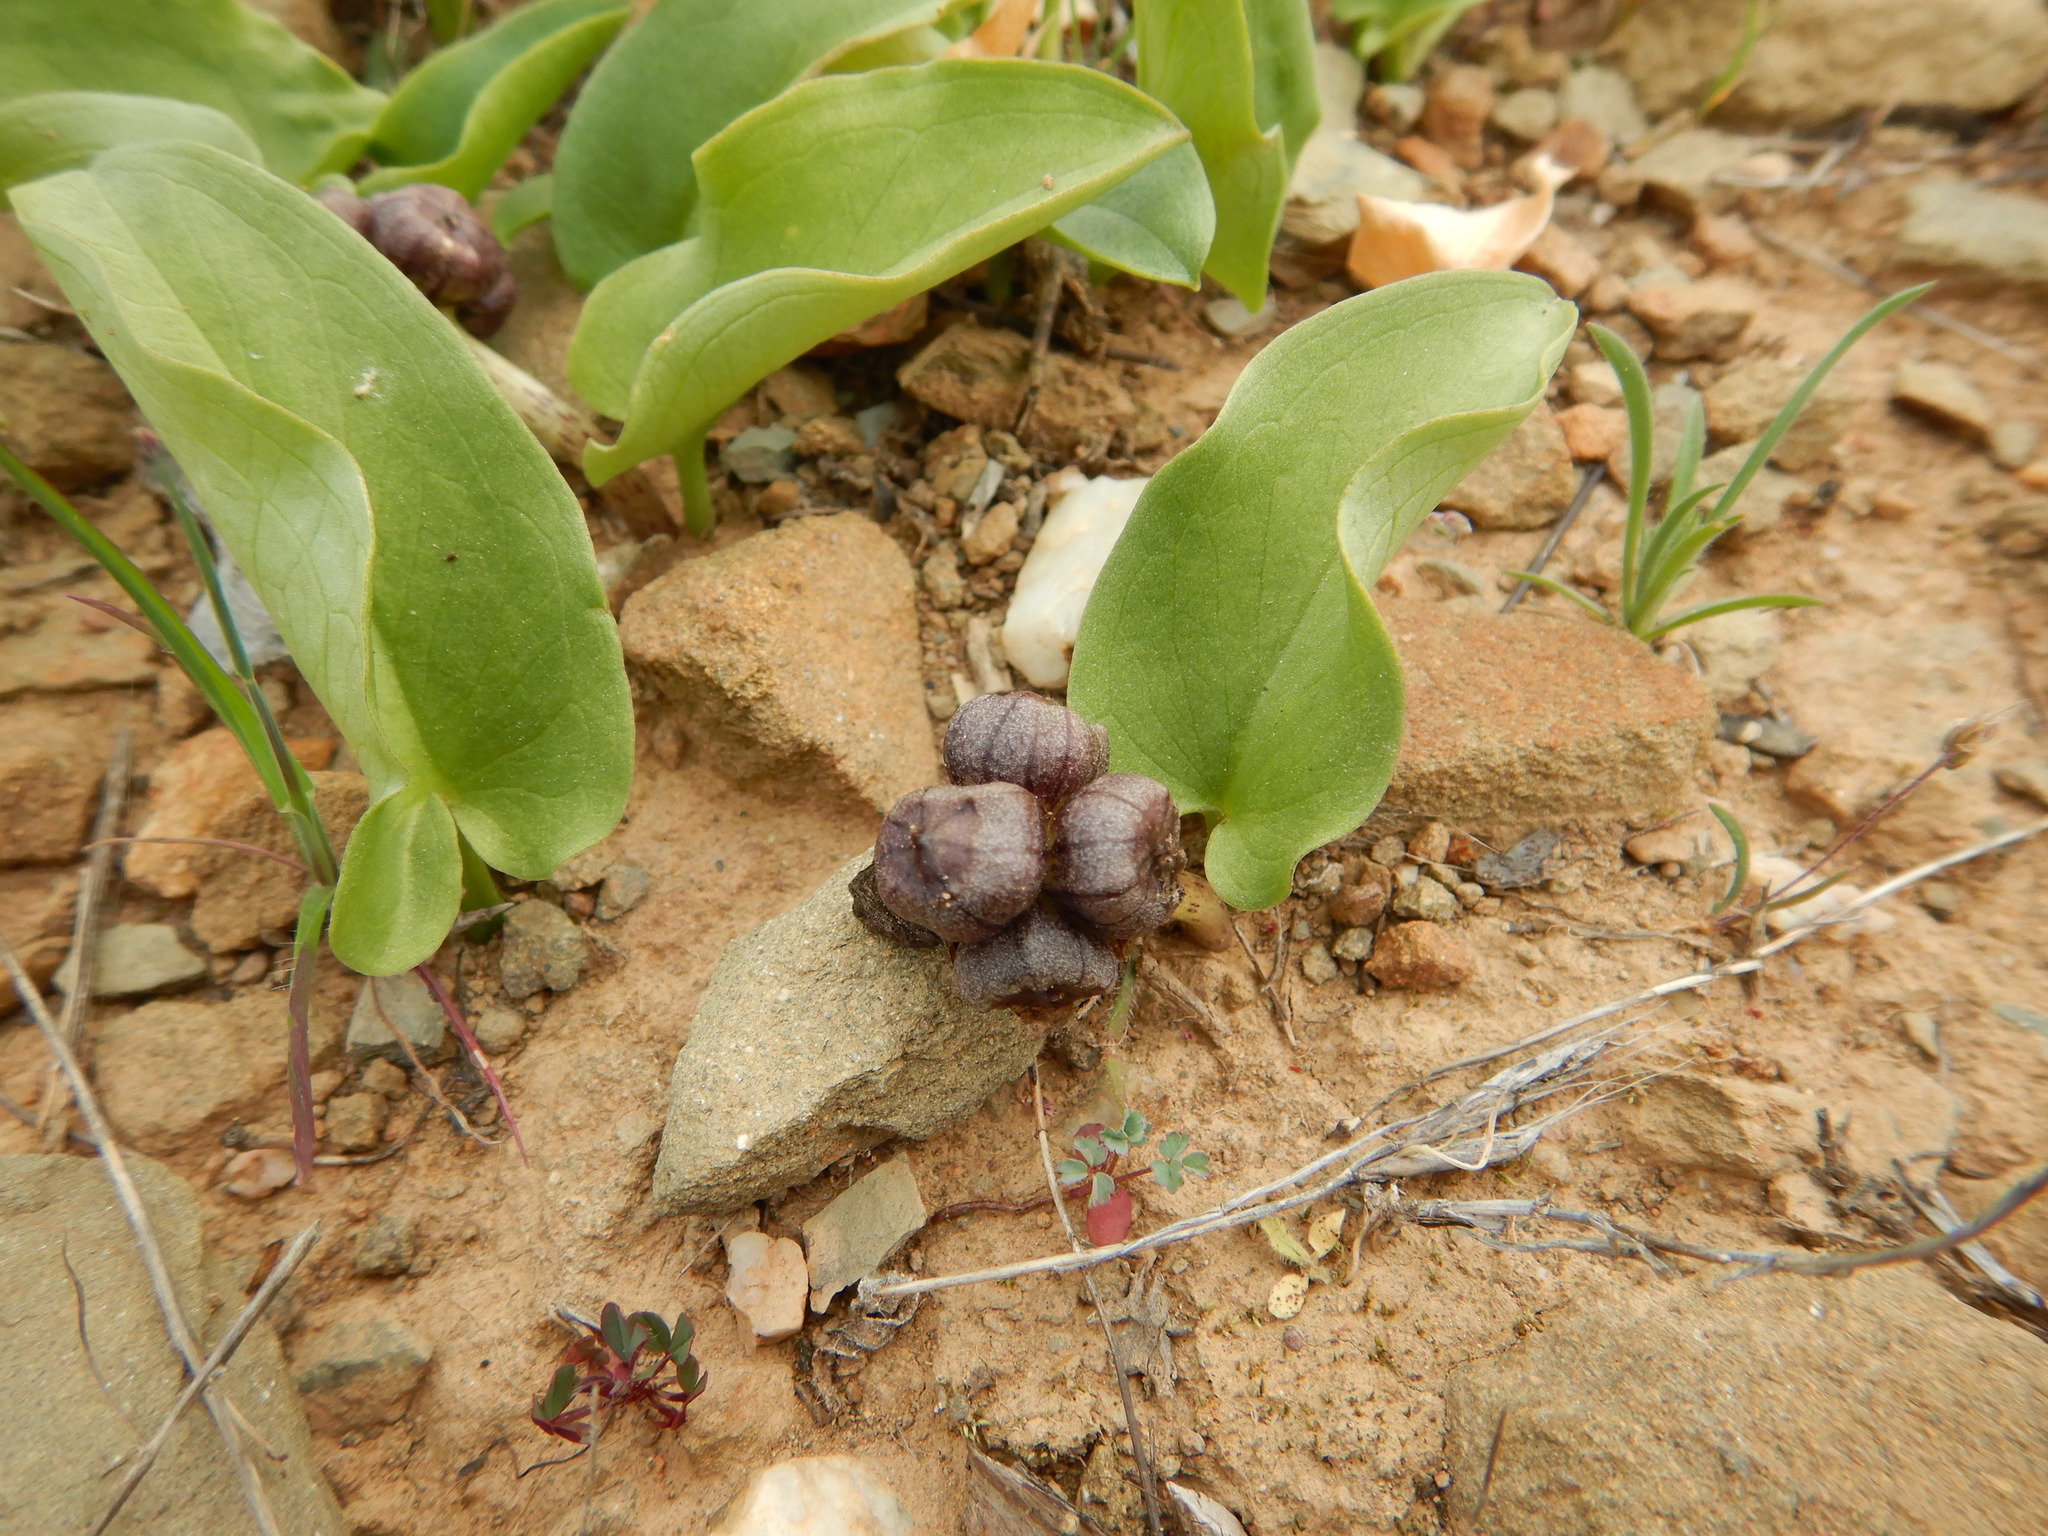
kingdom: Plantae
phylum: Tracheophyta
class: Liliopsida
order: Alismatales
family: Araceae
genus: Arisarum
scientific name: Arisarum simorrhinum
